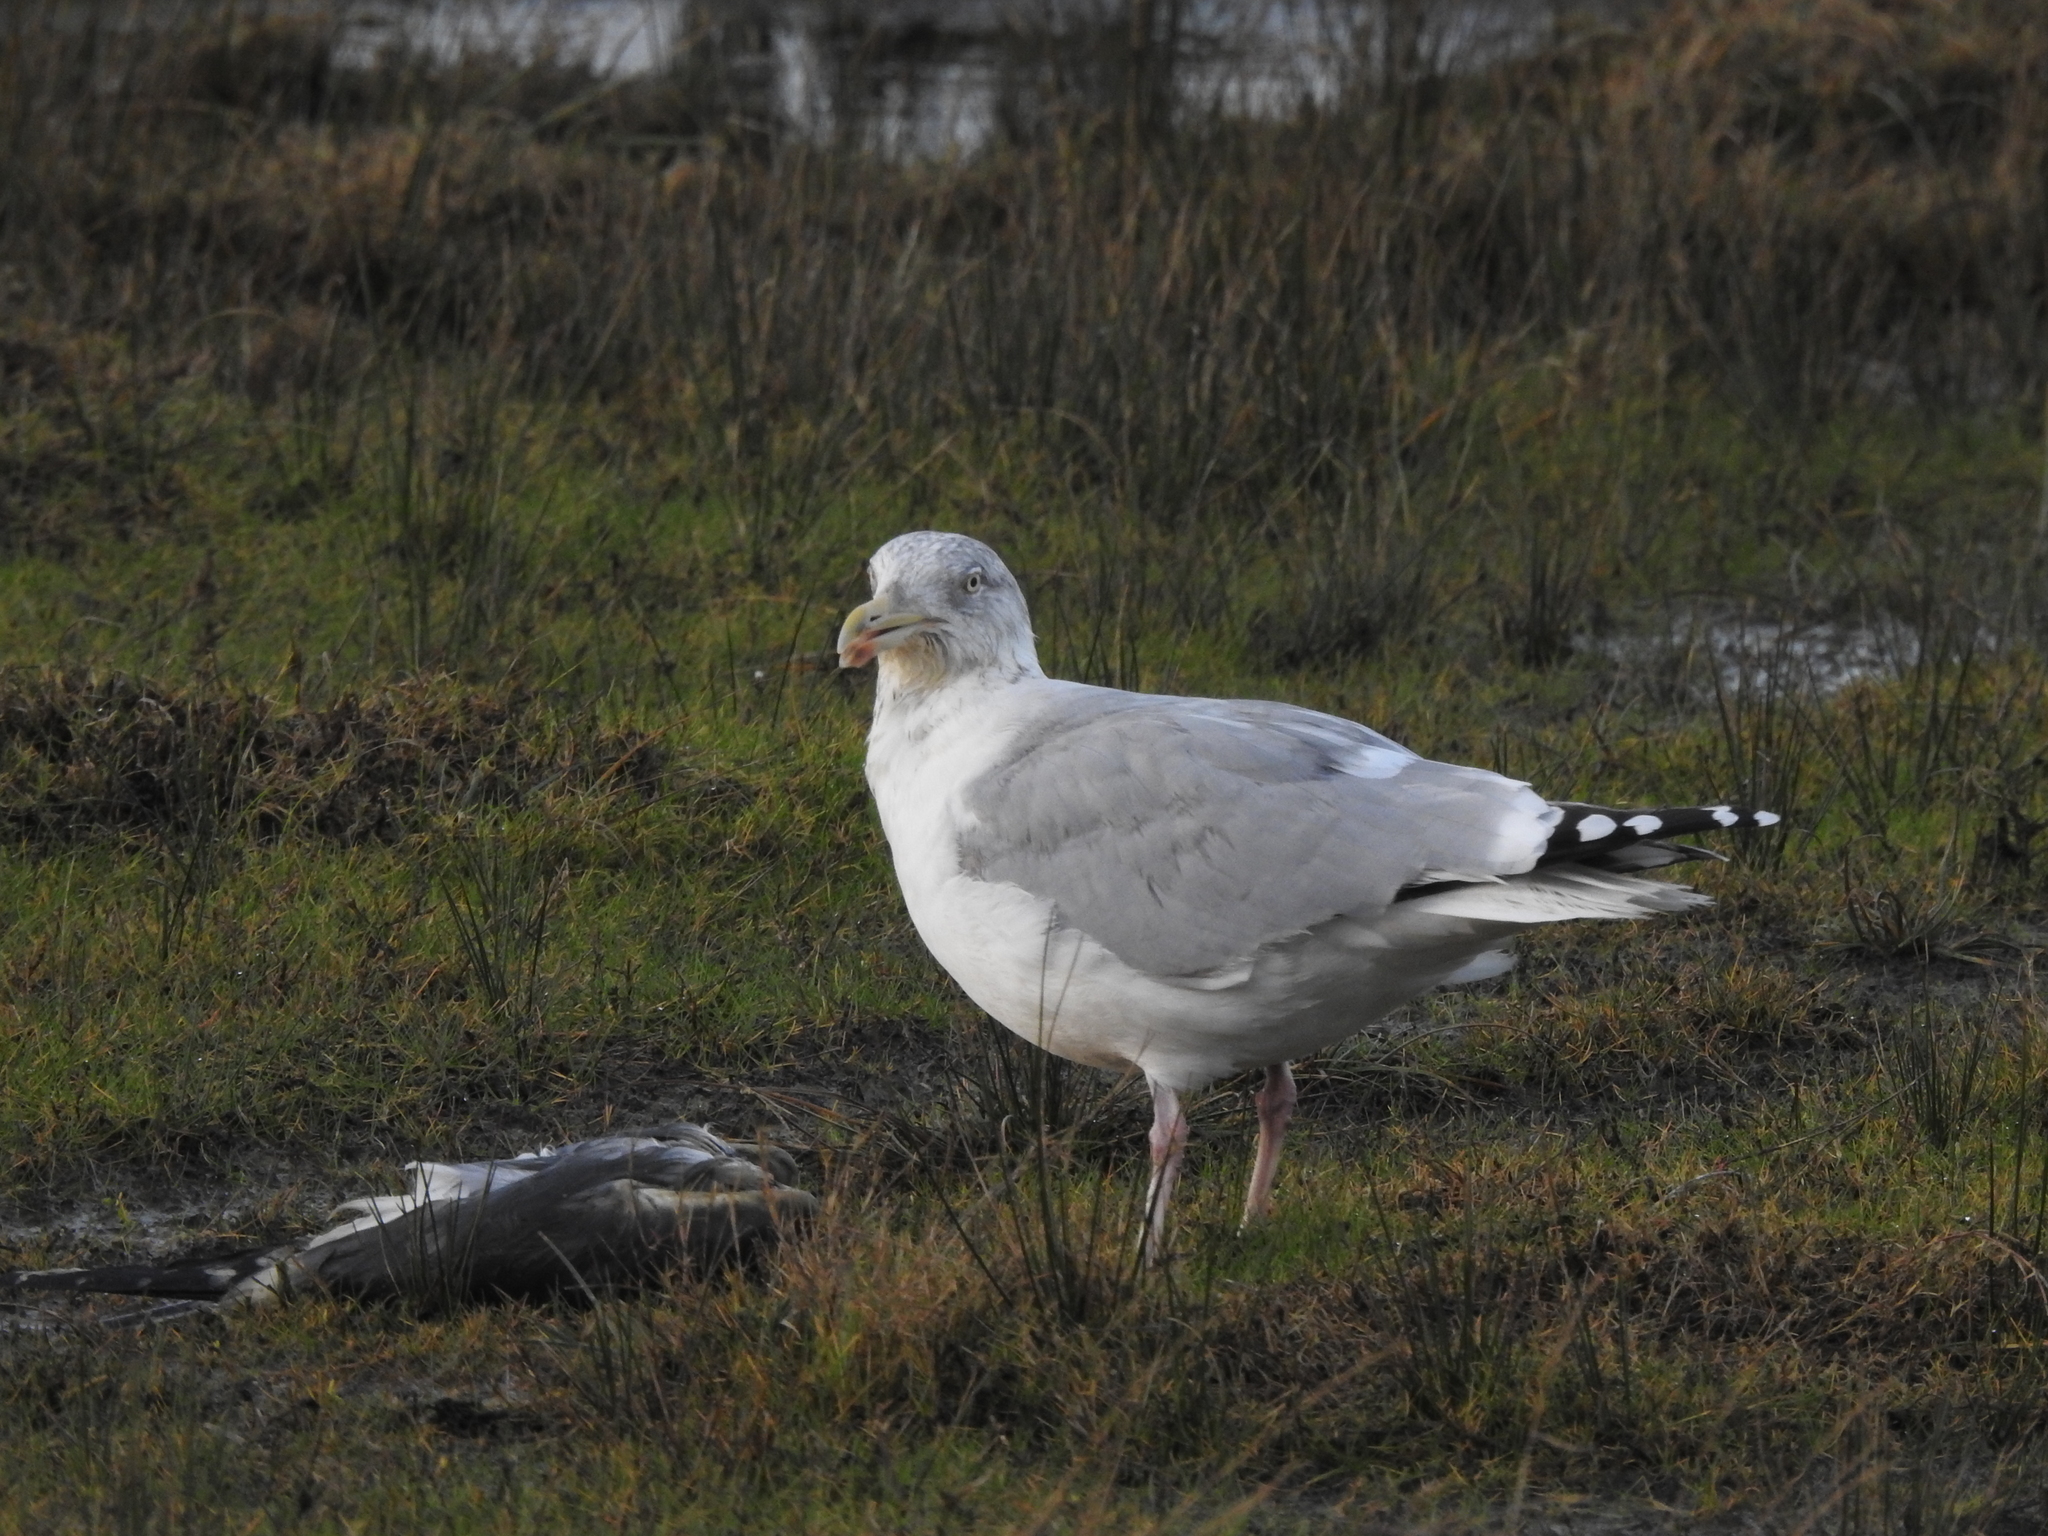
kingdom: Animalia
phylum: Chordata
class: Aves
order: Charadriiformes
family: Laridae
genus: Larus
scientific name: Larus argentatus
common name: Herring gull
